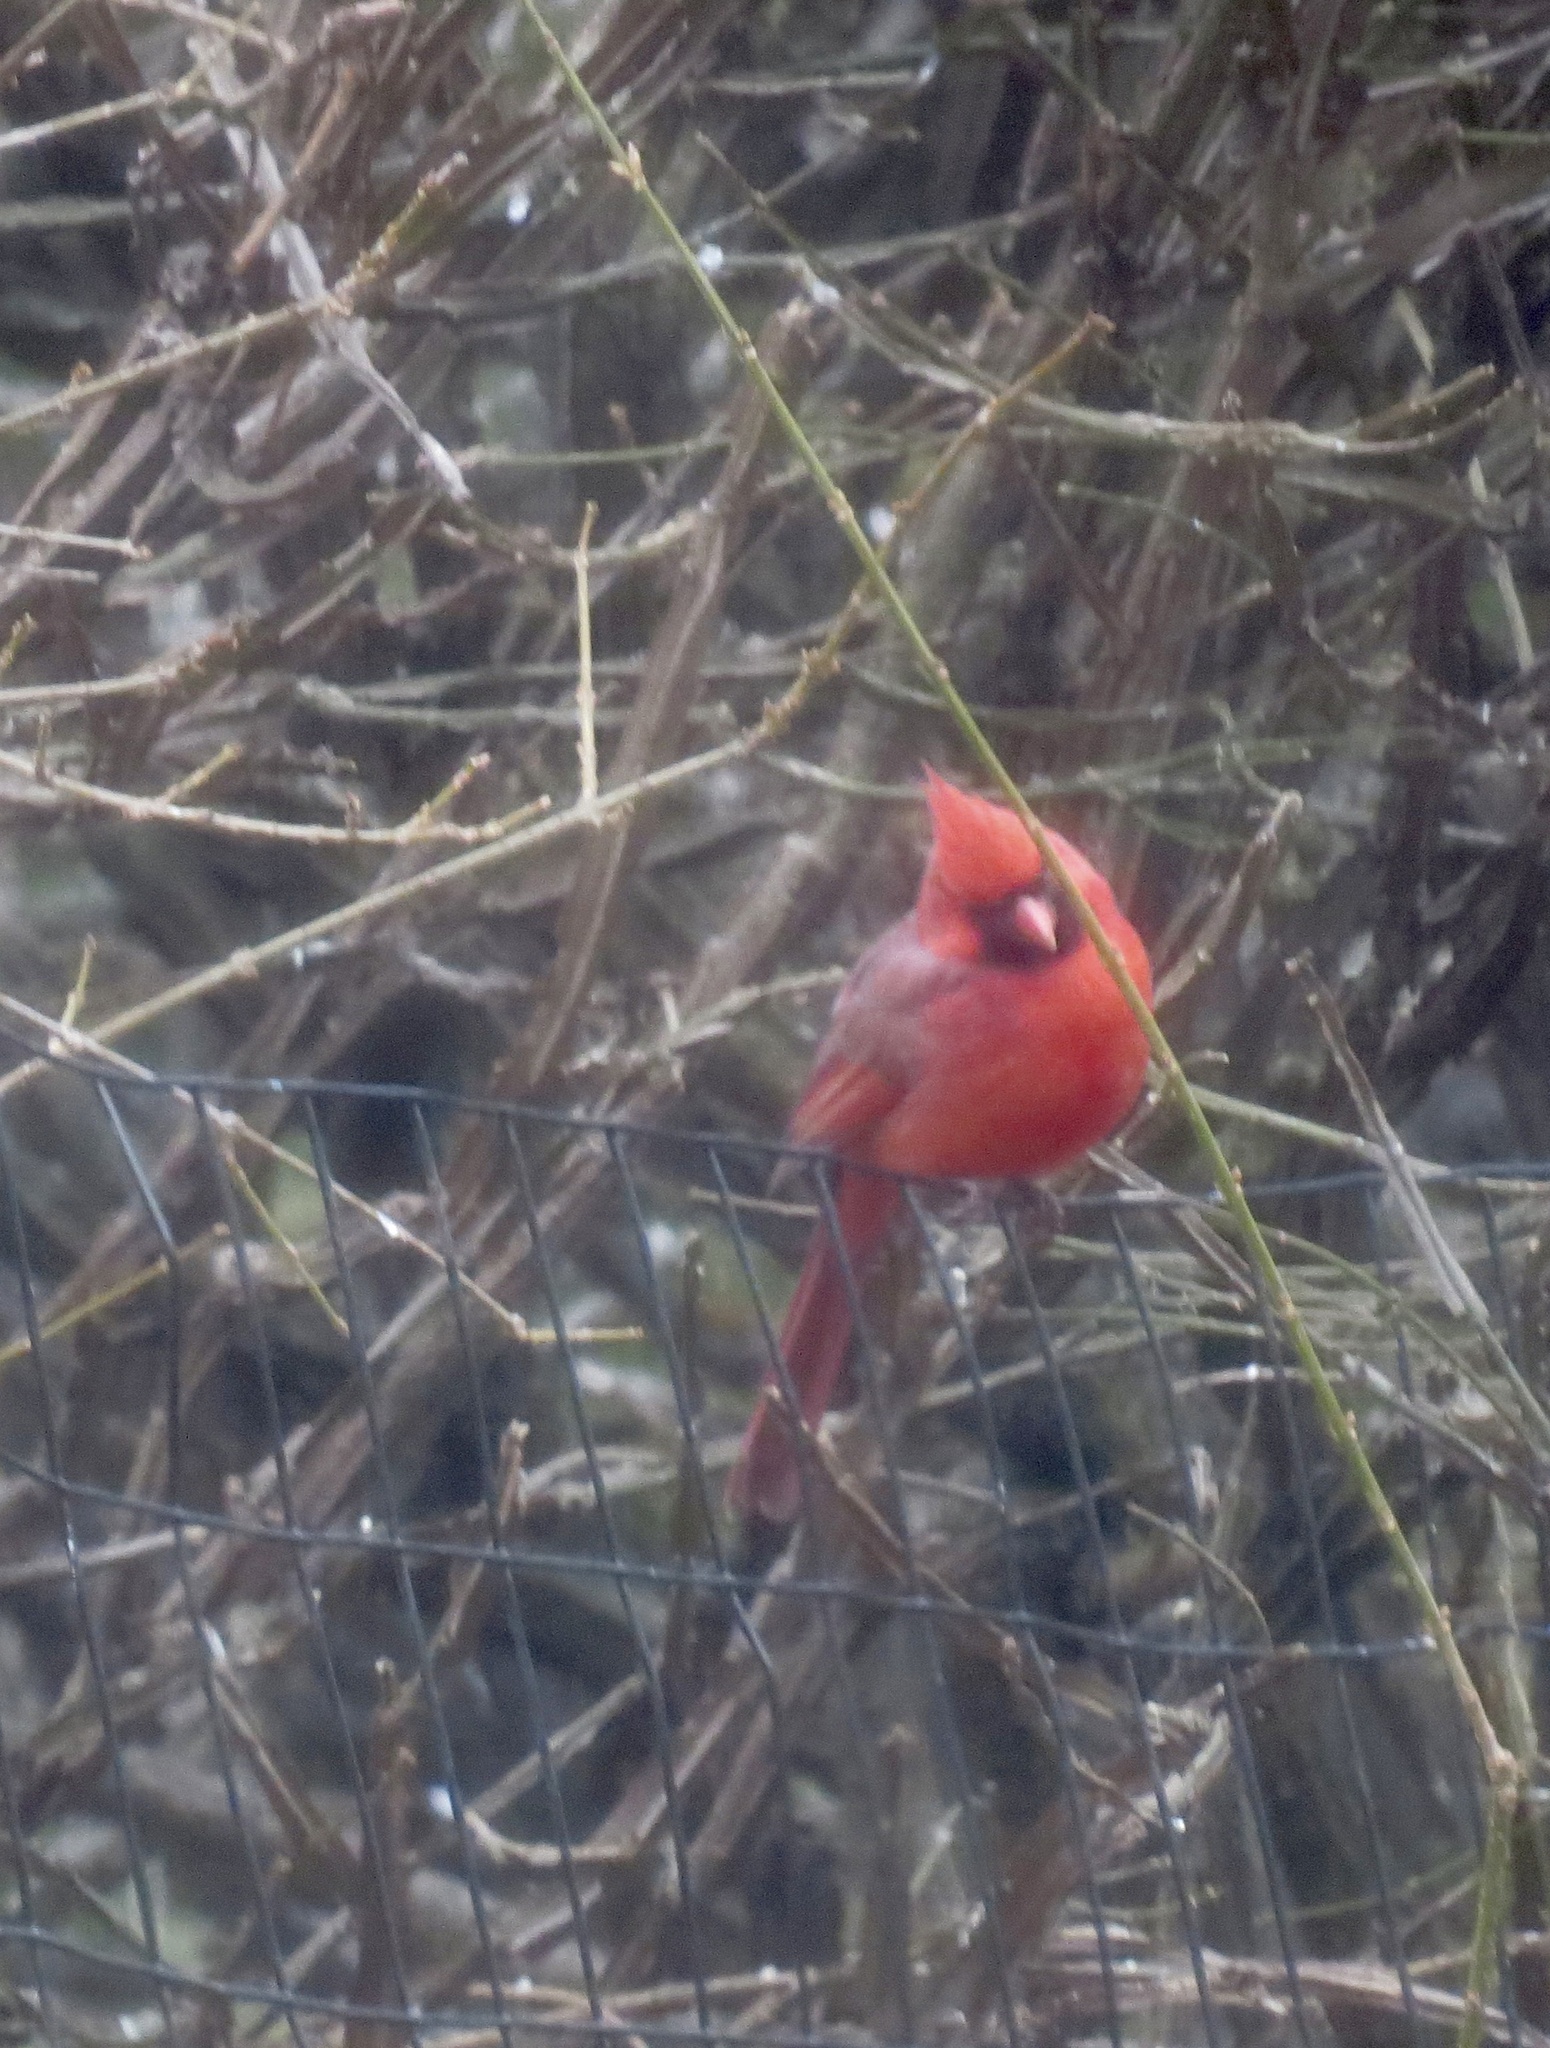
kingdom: Animalia
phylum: Chordata
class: Aves
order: Passeriformes
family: Cardinalidae
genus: Cardinalis
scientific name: Cardinalis cardinalis
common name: Northern cardinal
